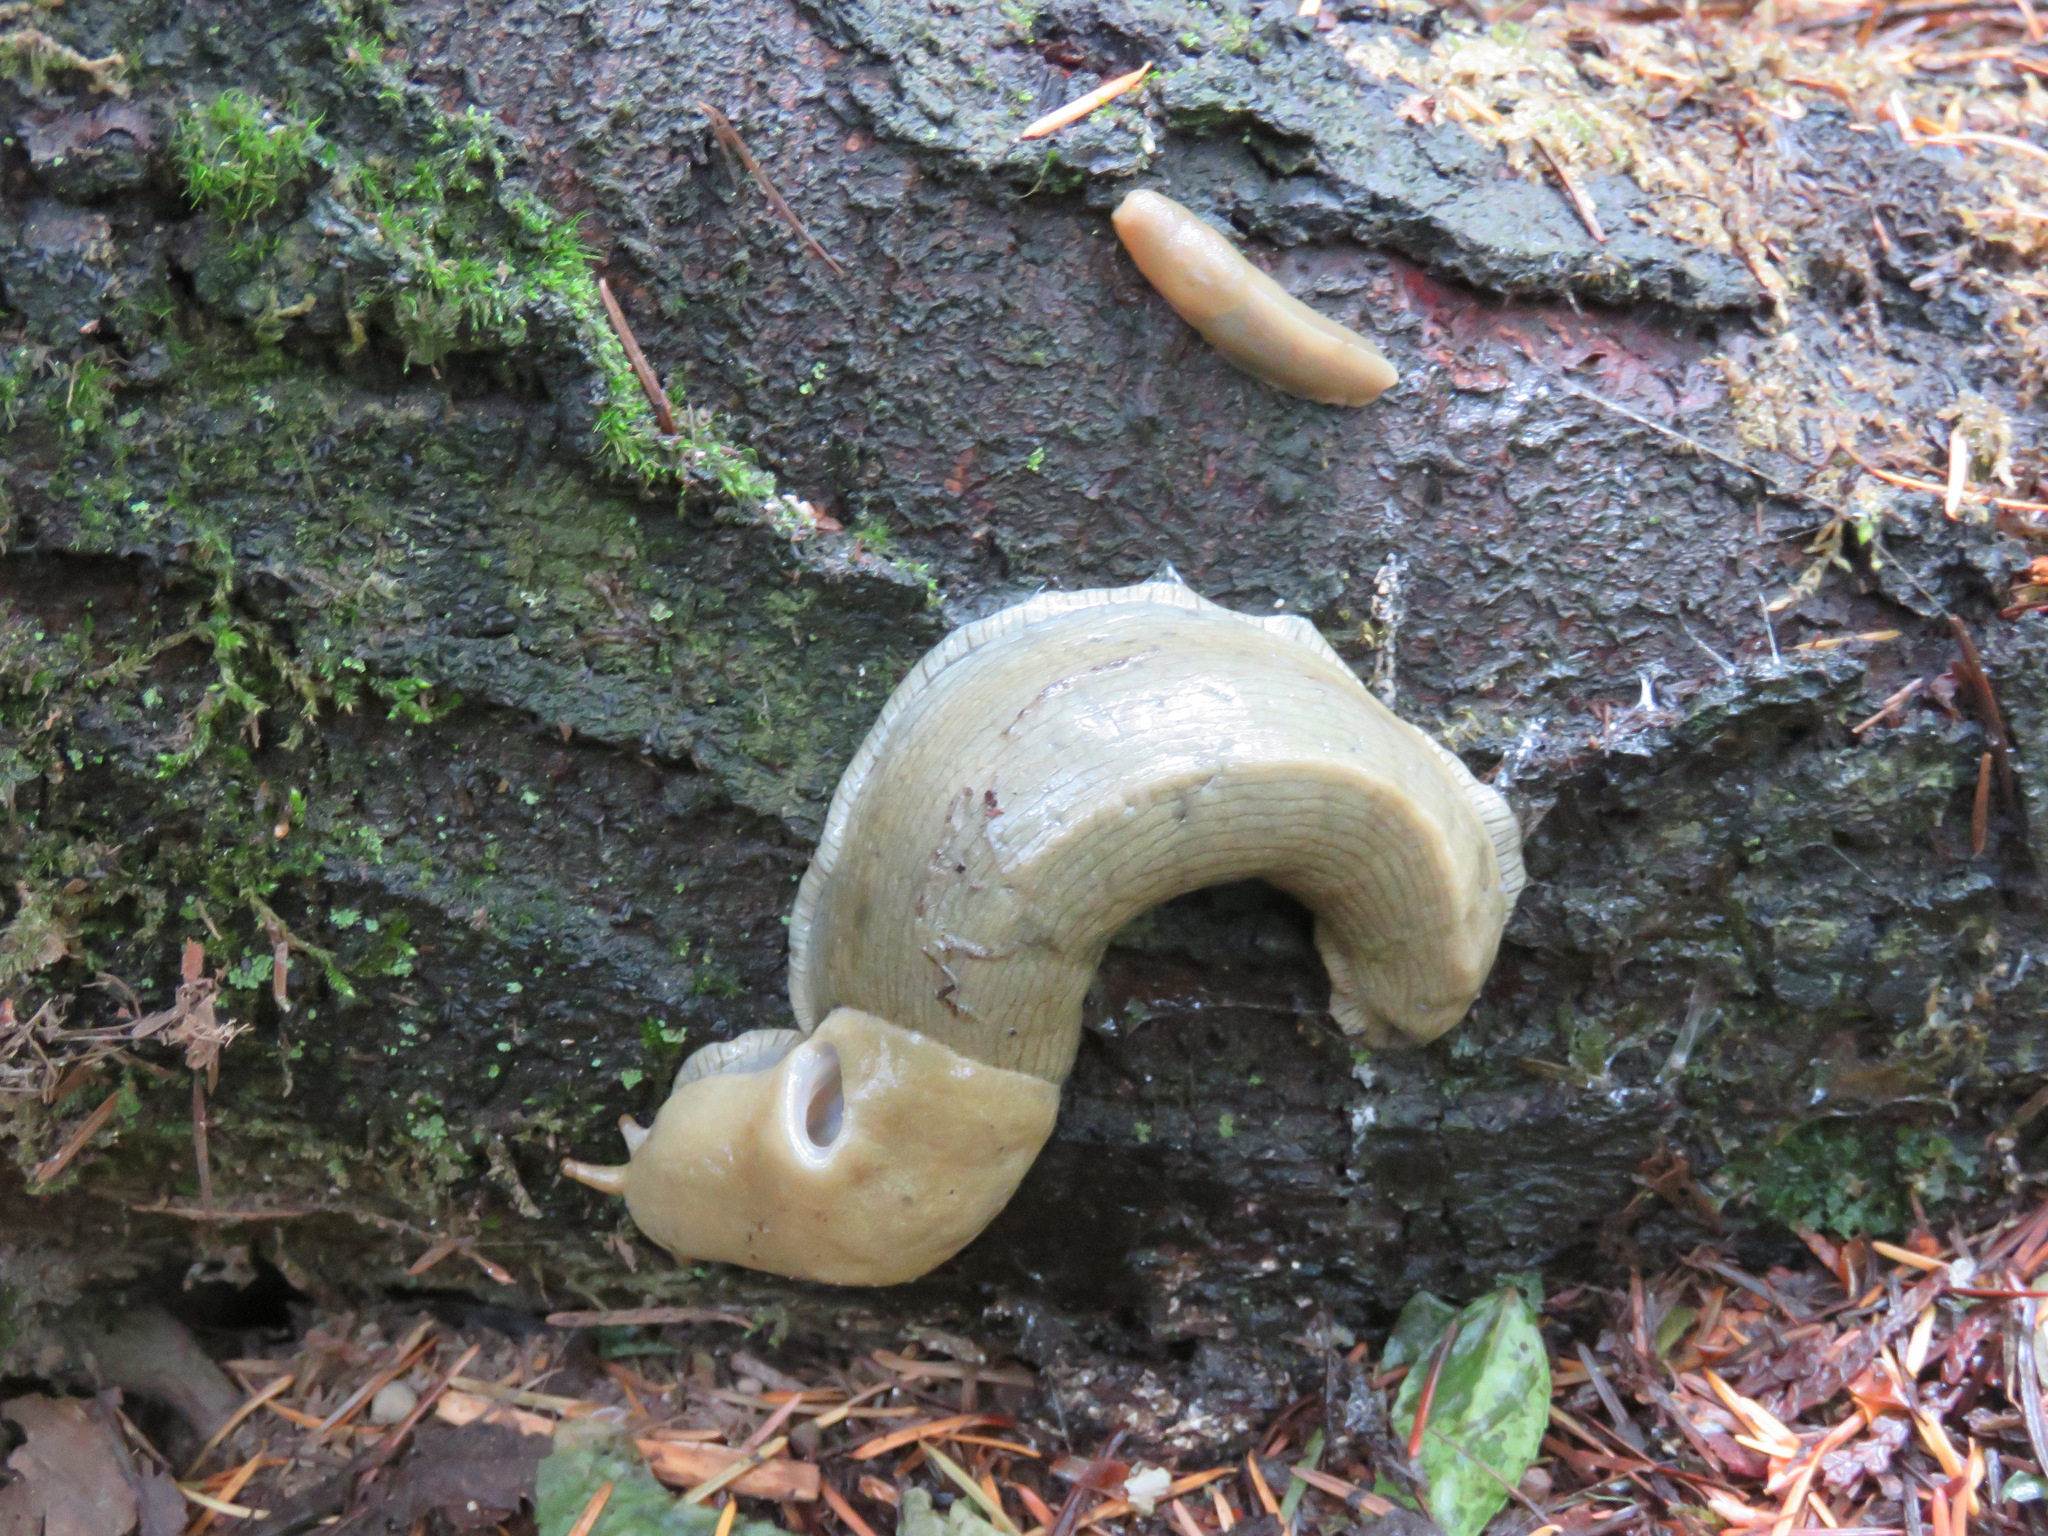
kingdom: Animalia
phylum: Mollusca
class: Gastropoda
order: Stylommatophora
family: Ariolimacidae
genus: Ariolimax
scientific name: Ariolimax columbianus
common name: Pacific banana slug
